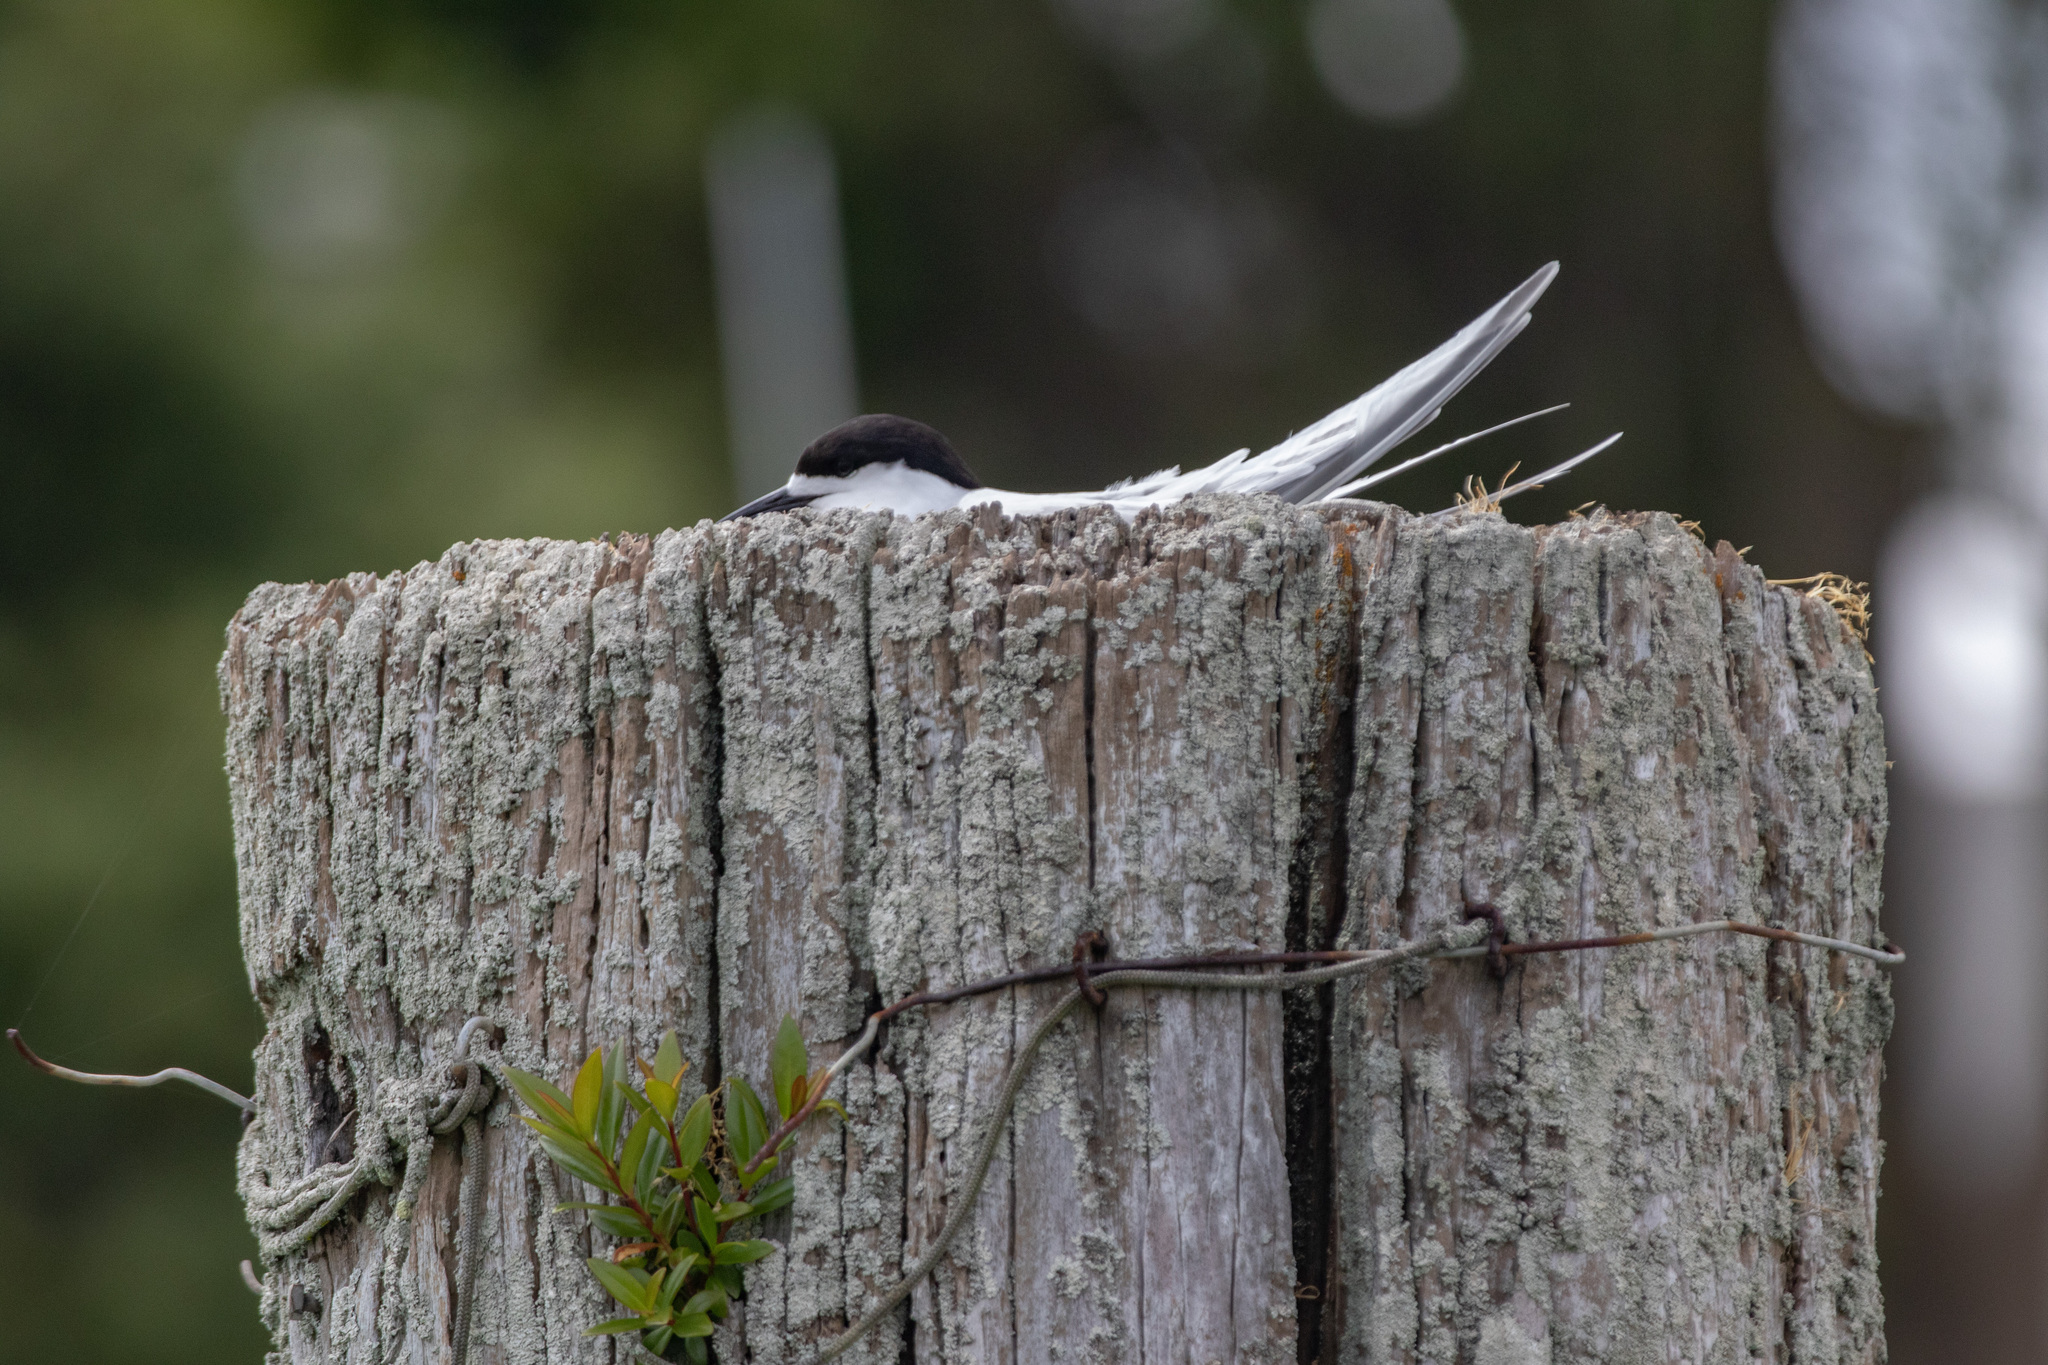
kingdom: Animalia
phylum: Chordata
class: Aves
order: Charadriiformes
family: Laridae
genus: Sterna
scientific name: Sterna striata
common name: White-fronted tern
